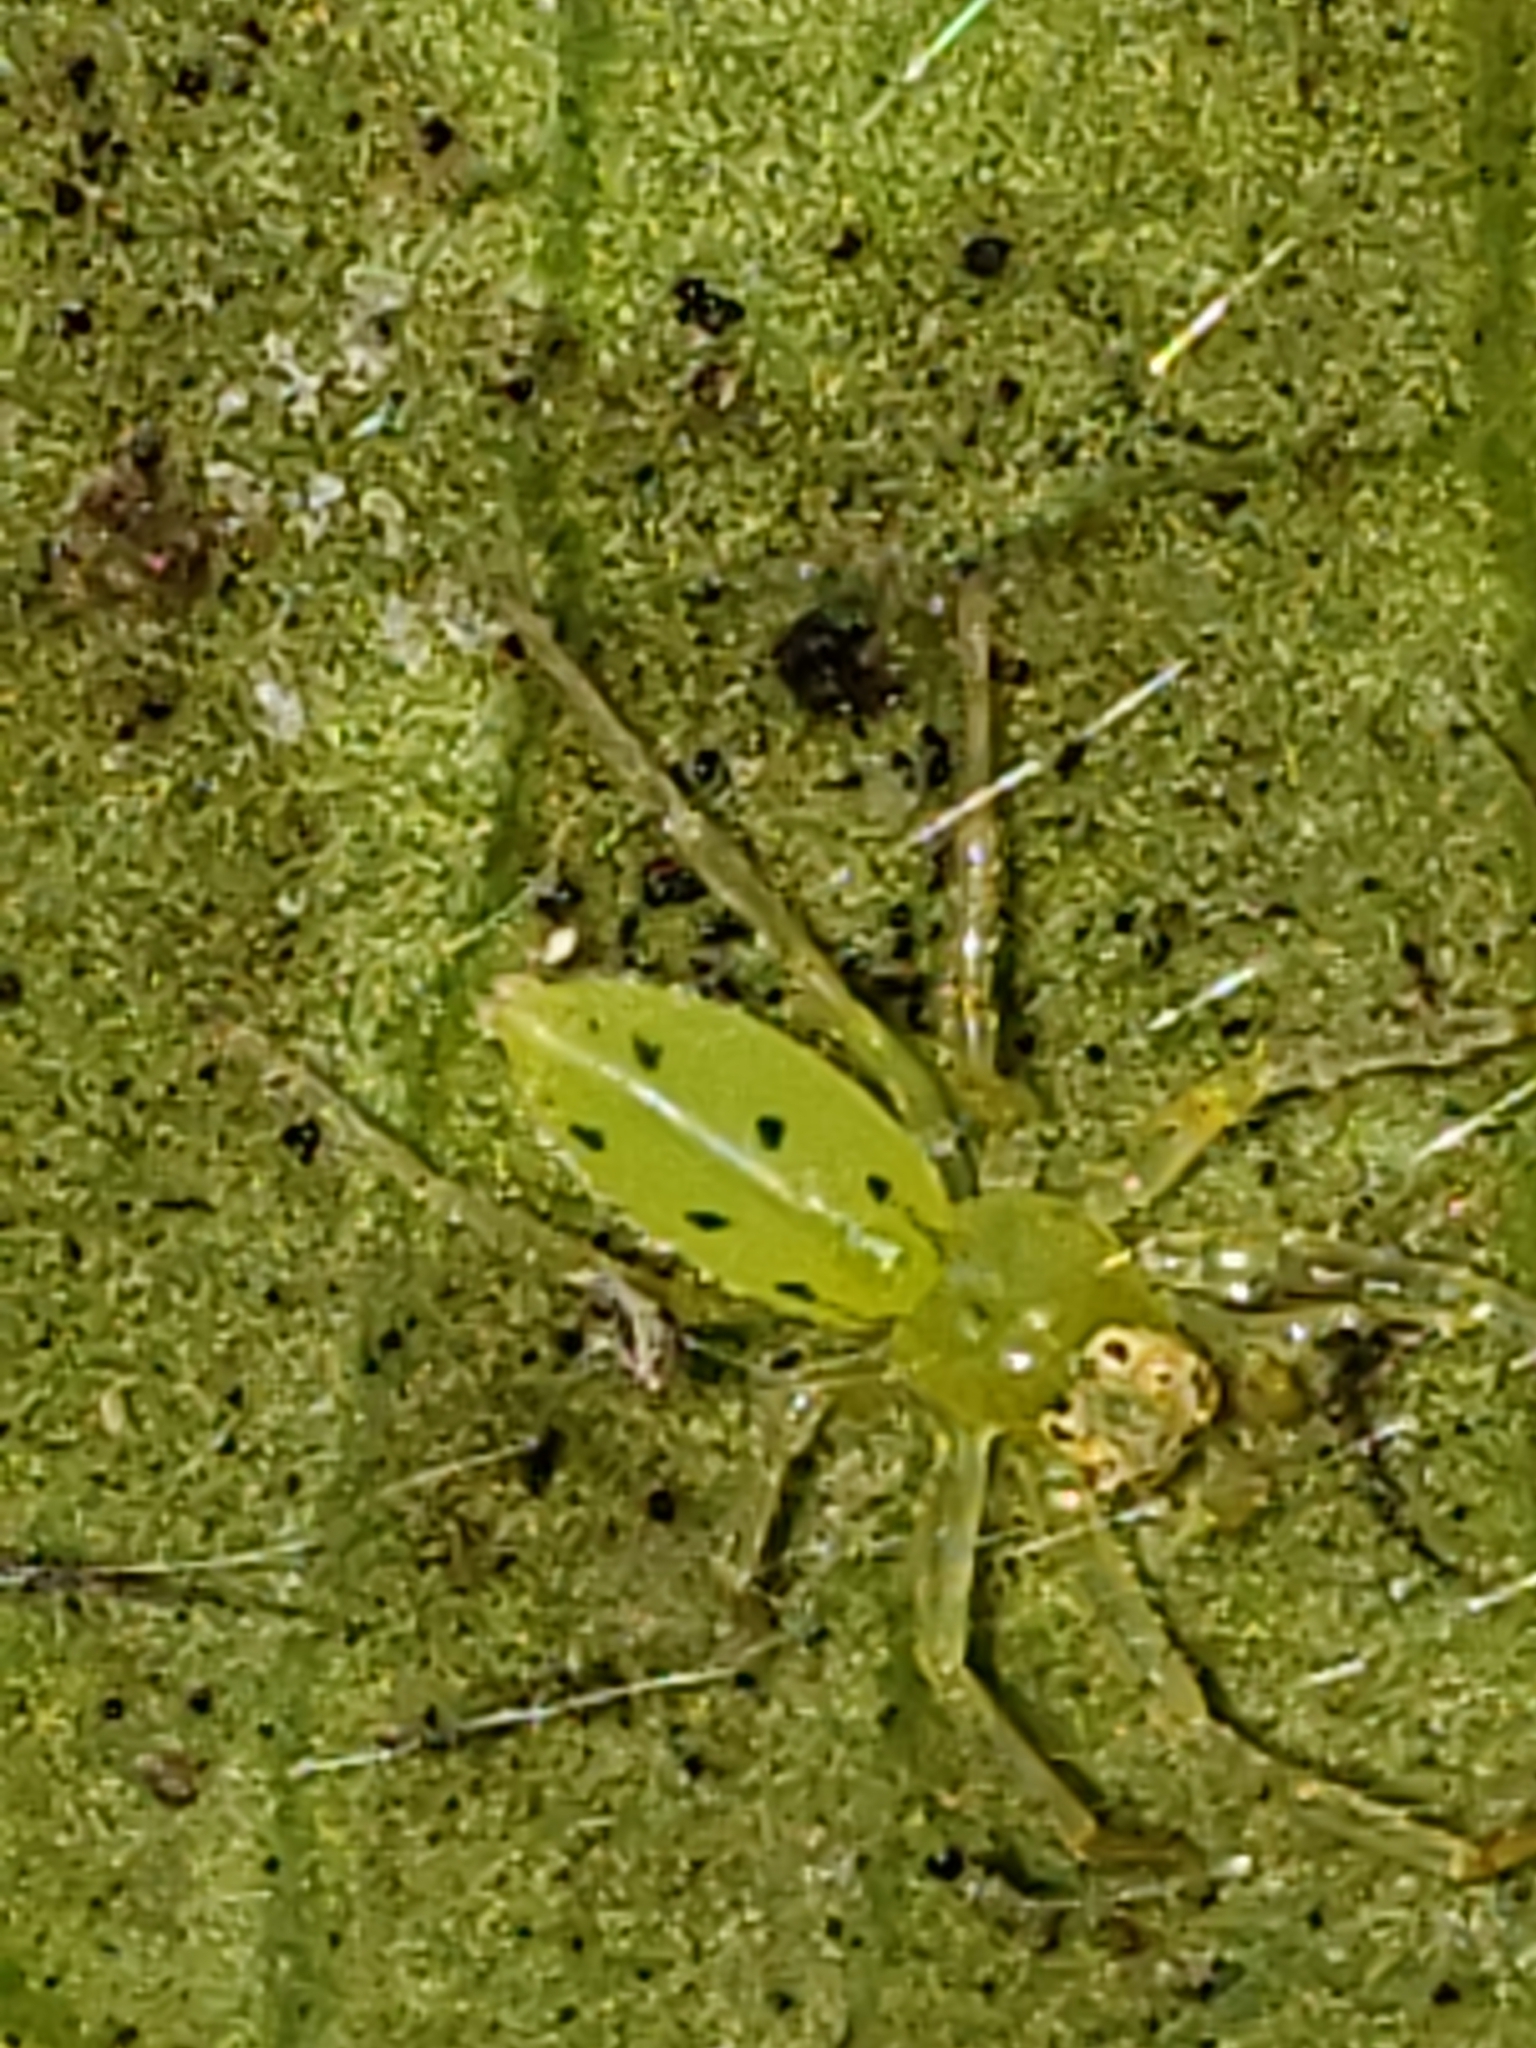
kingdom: Animalia
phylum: Arthropoda
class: Arachnida
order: Araneae
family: Salticidae
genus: Lyssomanes
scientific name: Lyssomanes viridis
